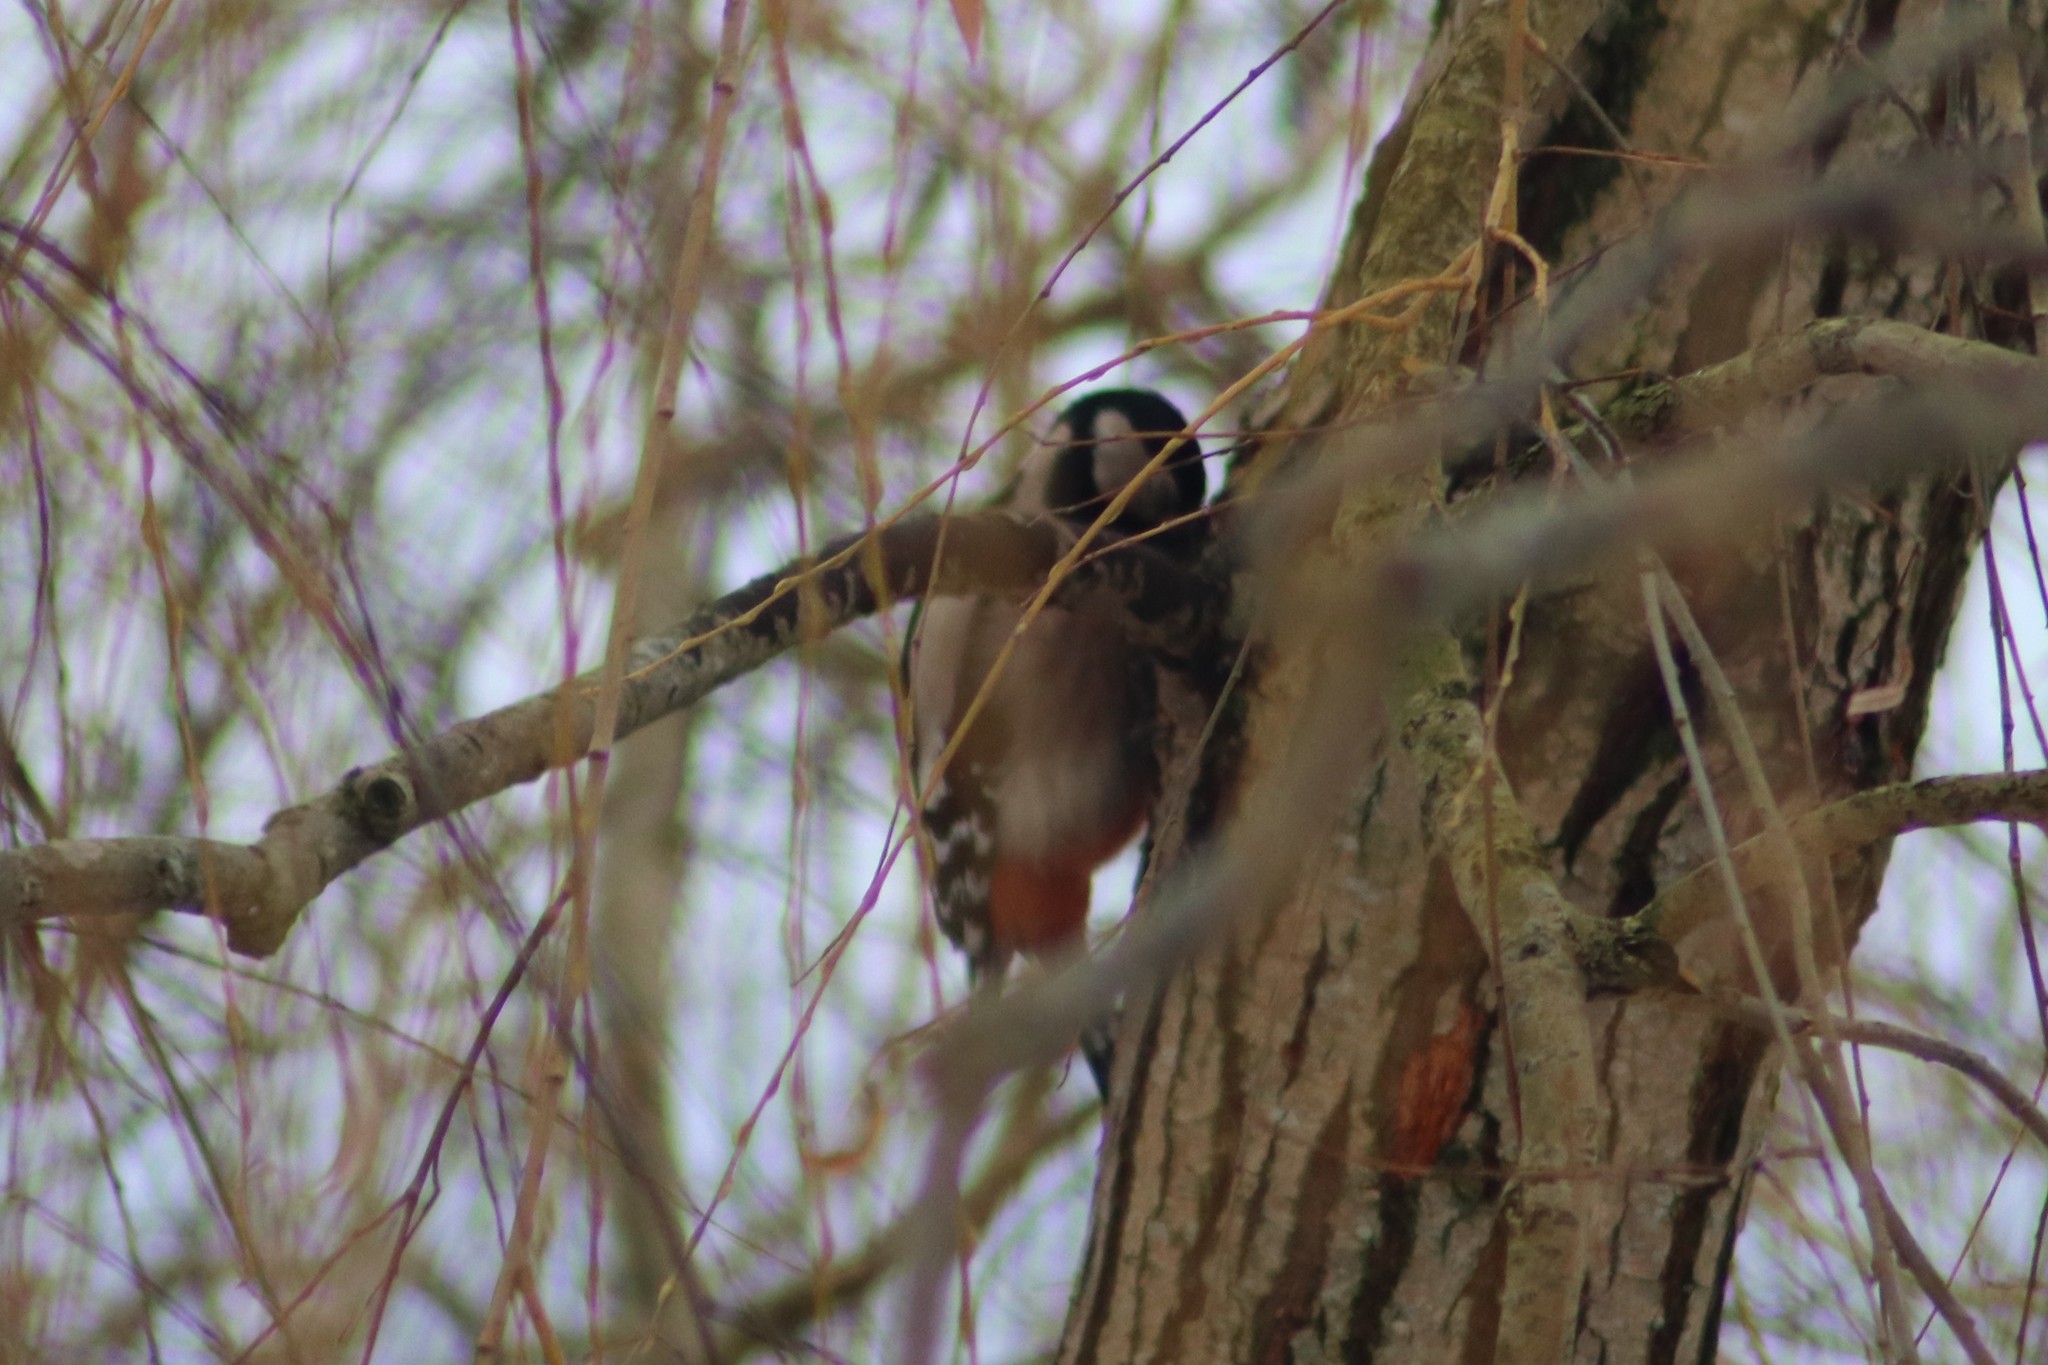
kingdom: Animalia
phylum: Chordata
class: Aves
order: Piciformes
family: Picidae
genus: Dendrocopos
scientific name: Dendrocopos major
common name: Great spotted woodpecker
